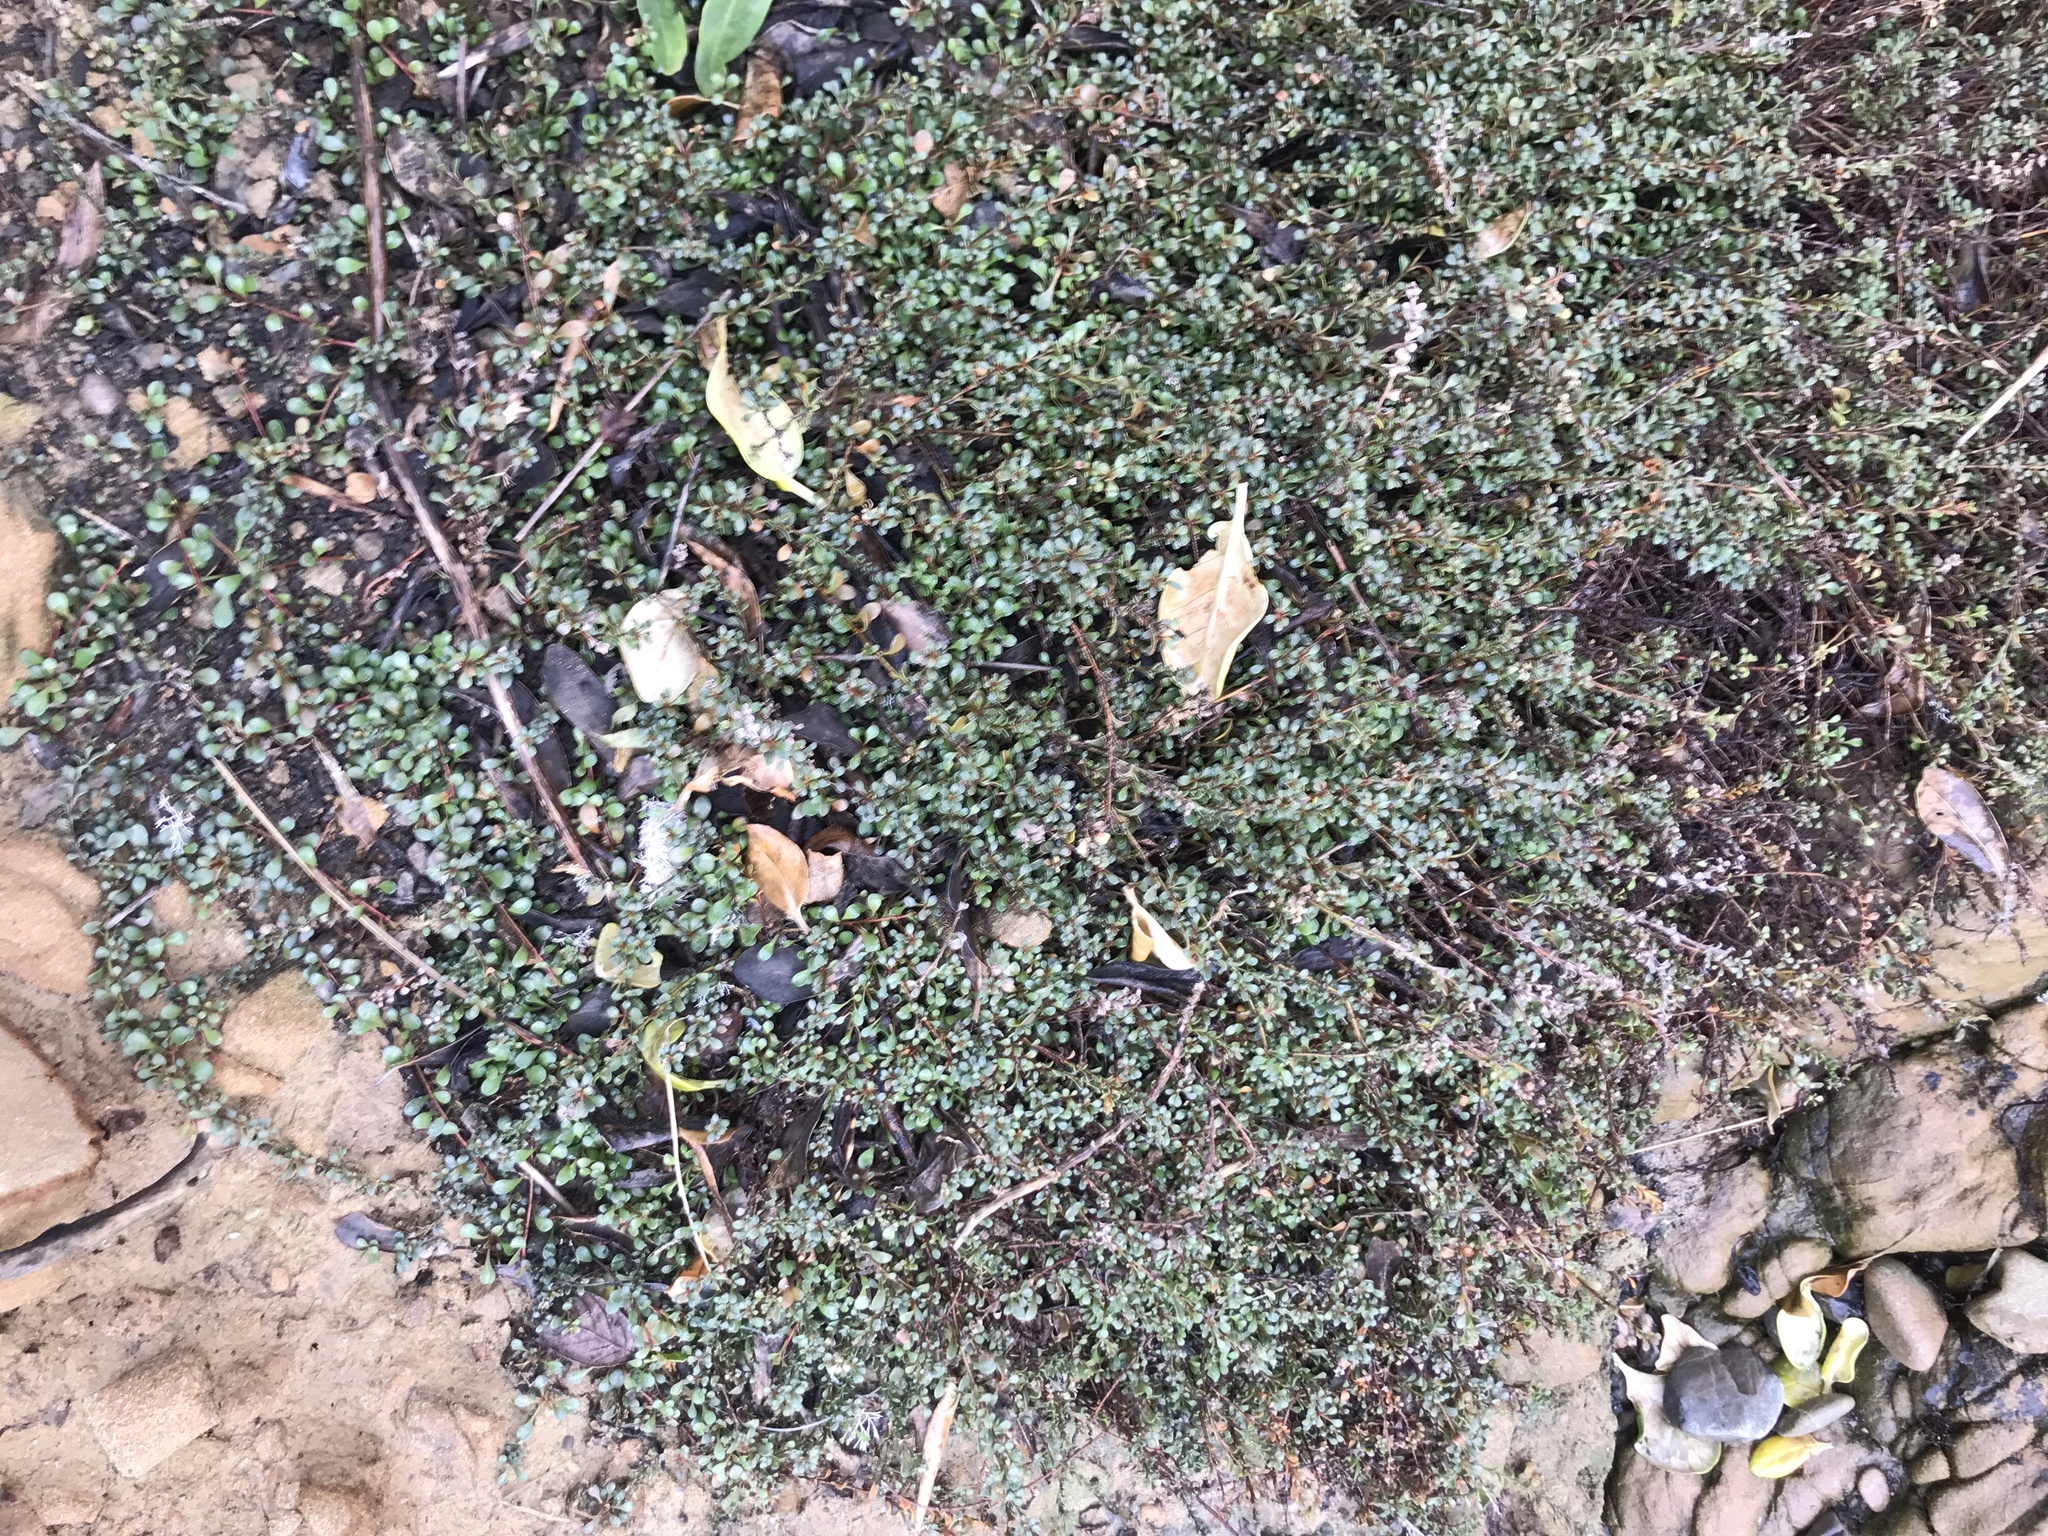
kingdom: Plantae
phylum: Tracheophyta
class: Magnoliopsida
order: Ericales
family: Primulaceae
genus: Samolus
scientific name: Samolus repens
